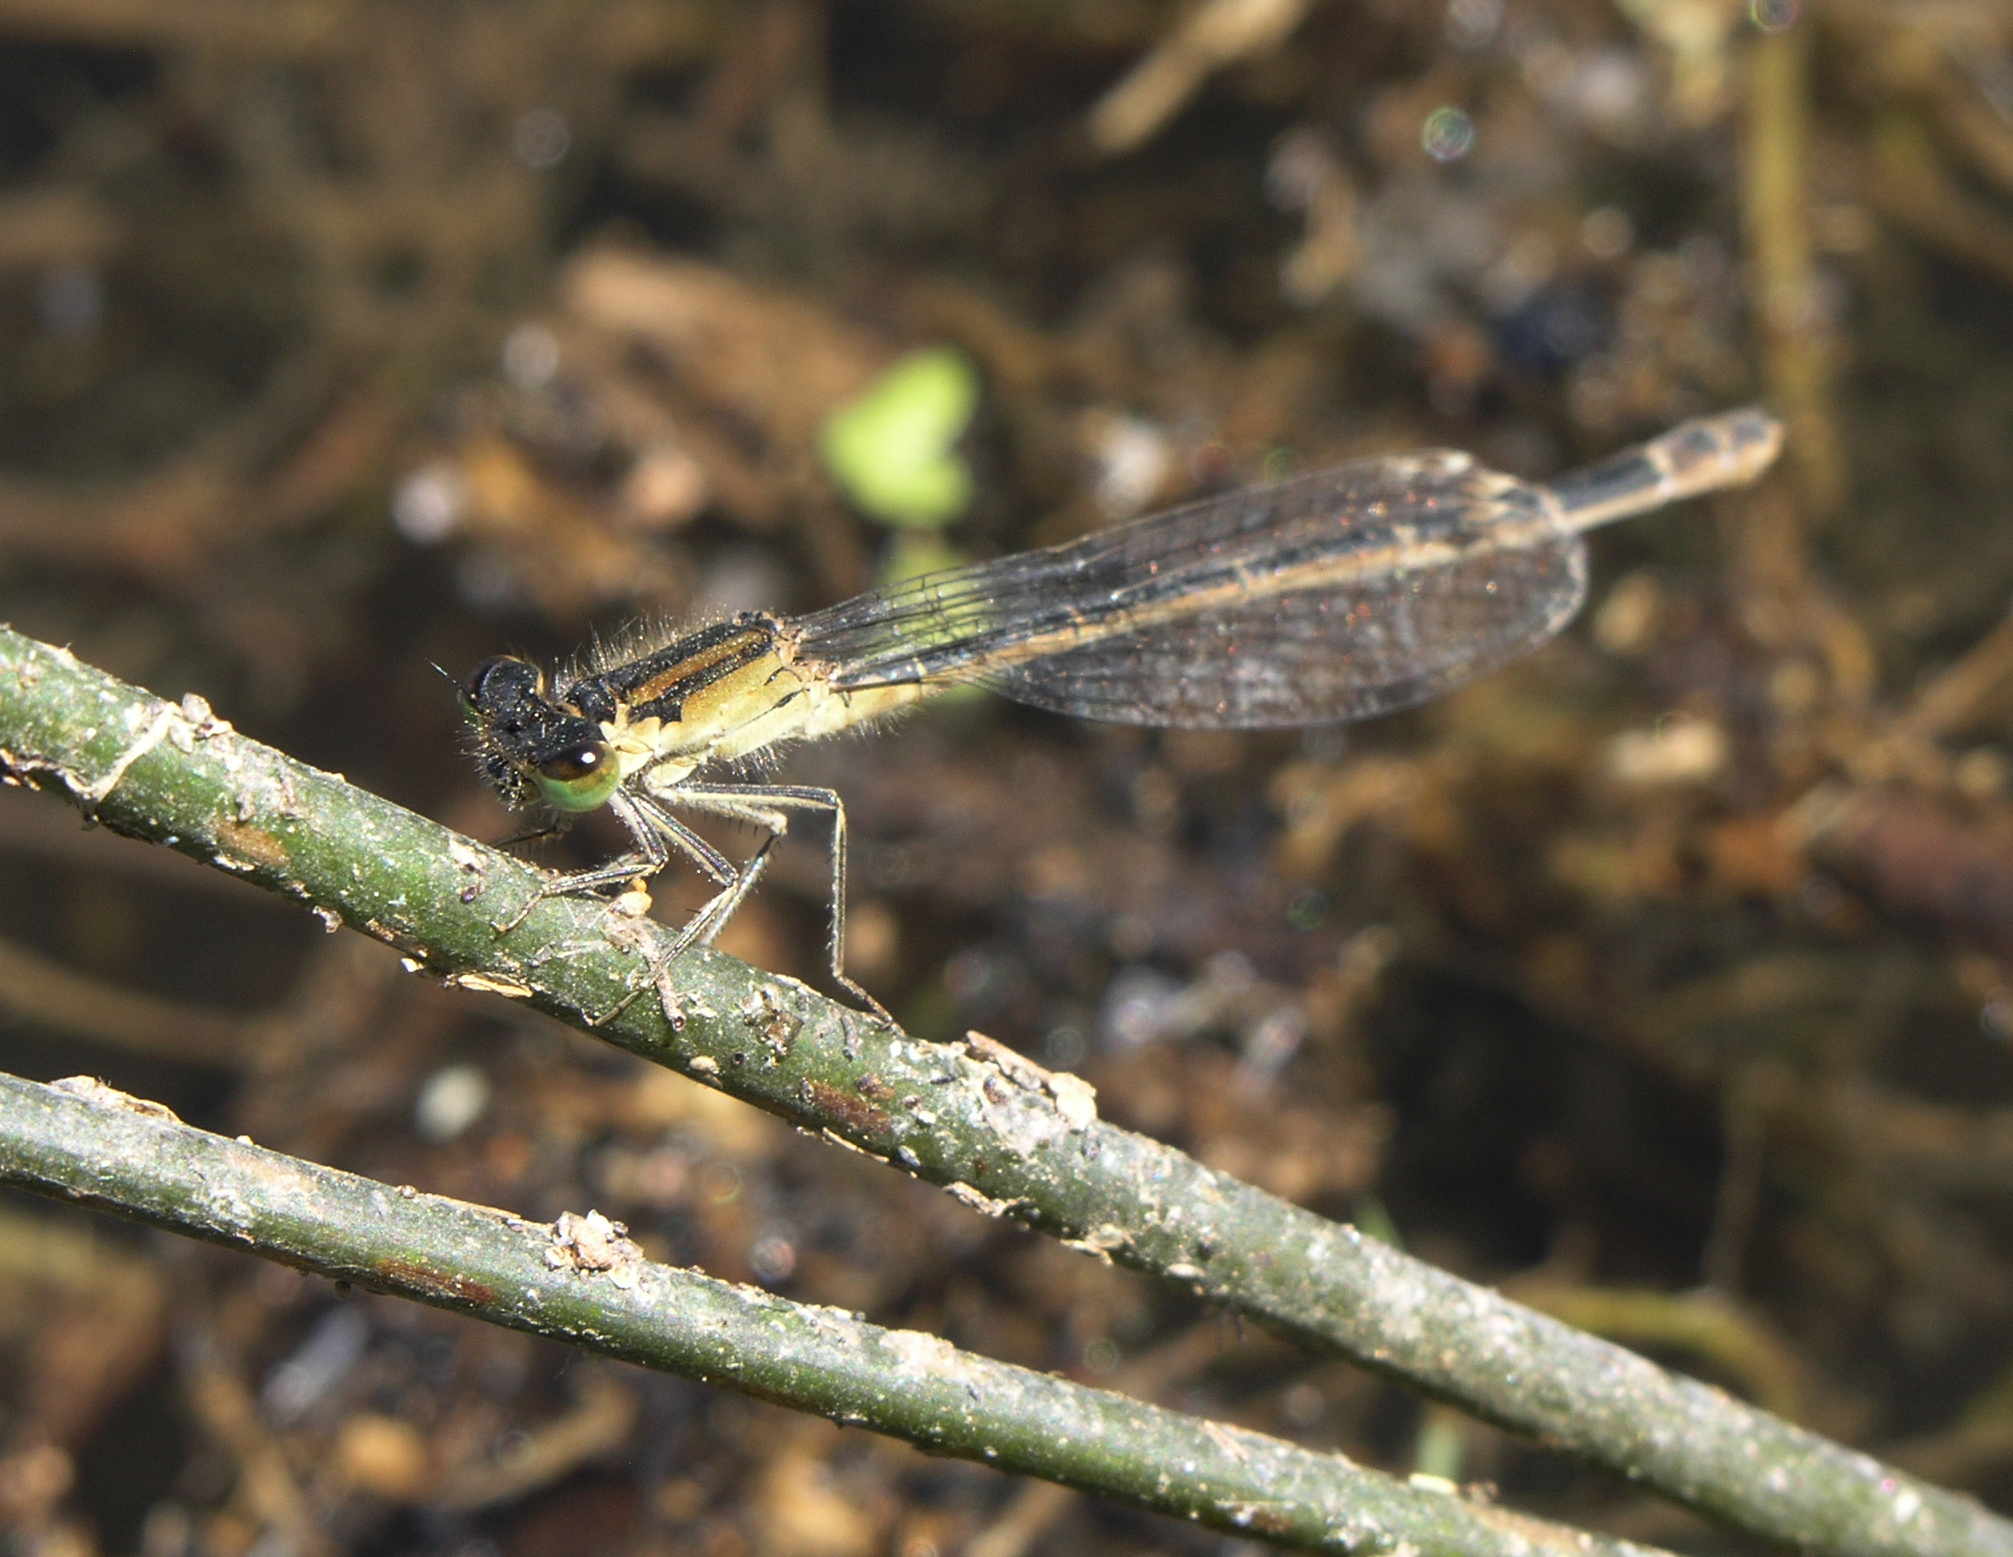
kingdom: Animalia
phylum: Arthropoda
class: Insecta
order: Odonata
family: Coenagrionidae
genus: Ischnura
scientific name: Ischnura graellsii
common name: Iberian bluetail
